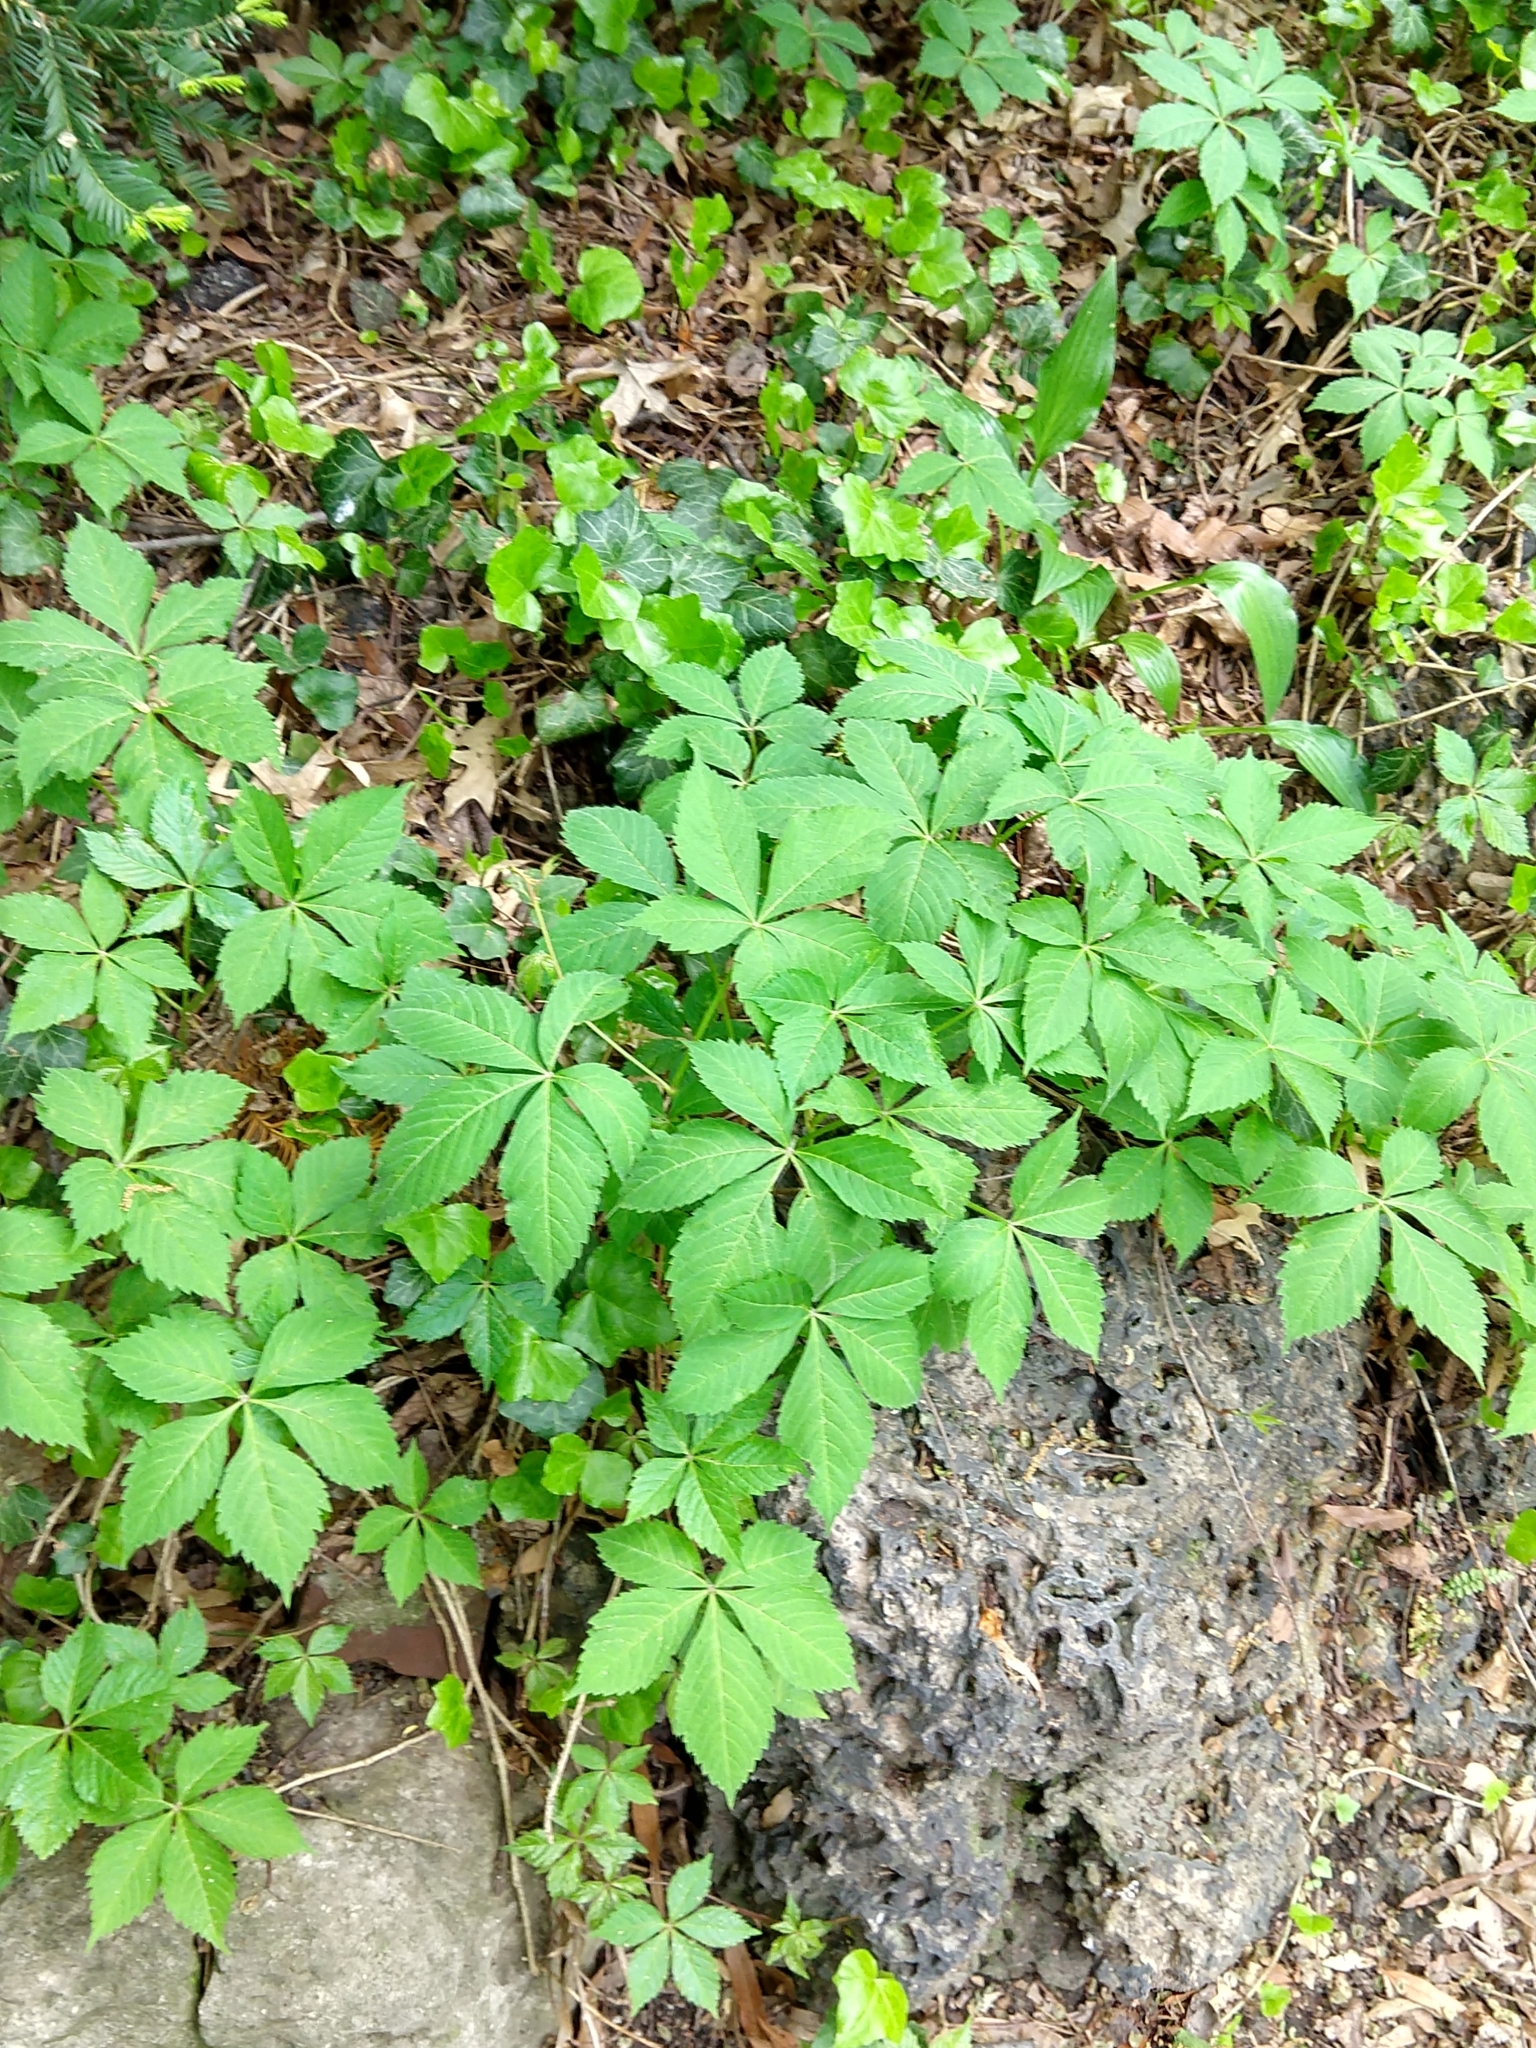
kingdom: Plantae
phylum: Tracheophyta
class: Magnoliopsida
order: Vitales
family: Vitaceae
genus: Parthenocissus
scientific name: Parthenocissus quinquefolia
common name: Virginia-creeper
